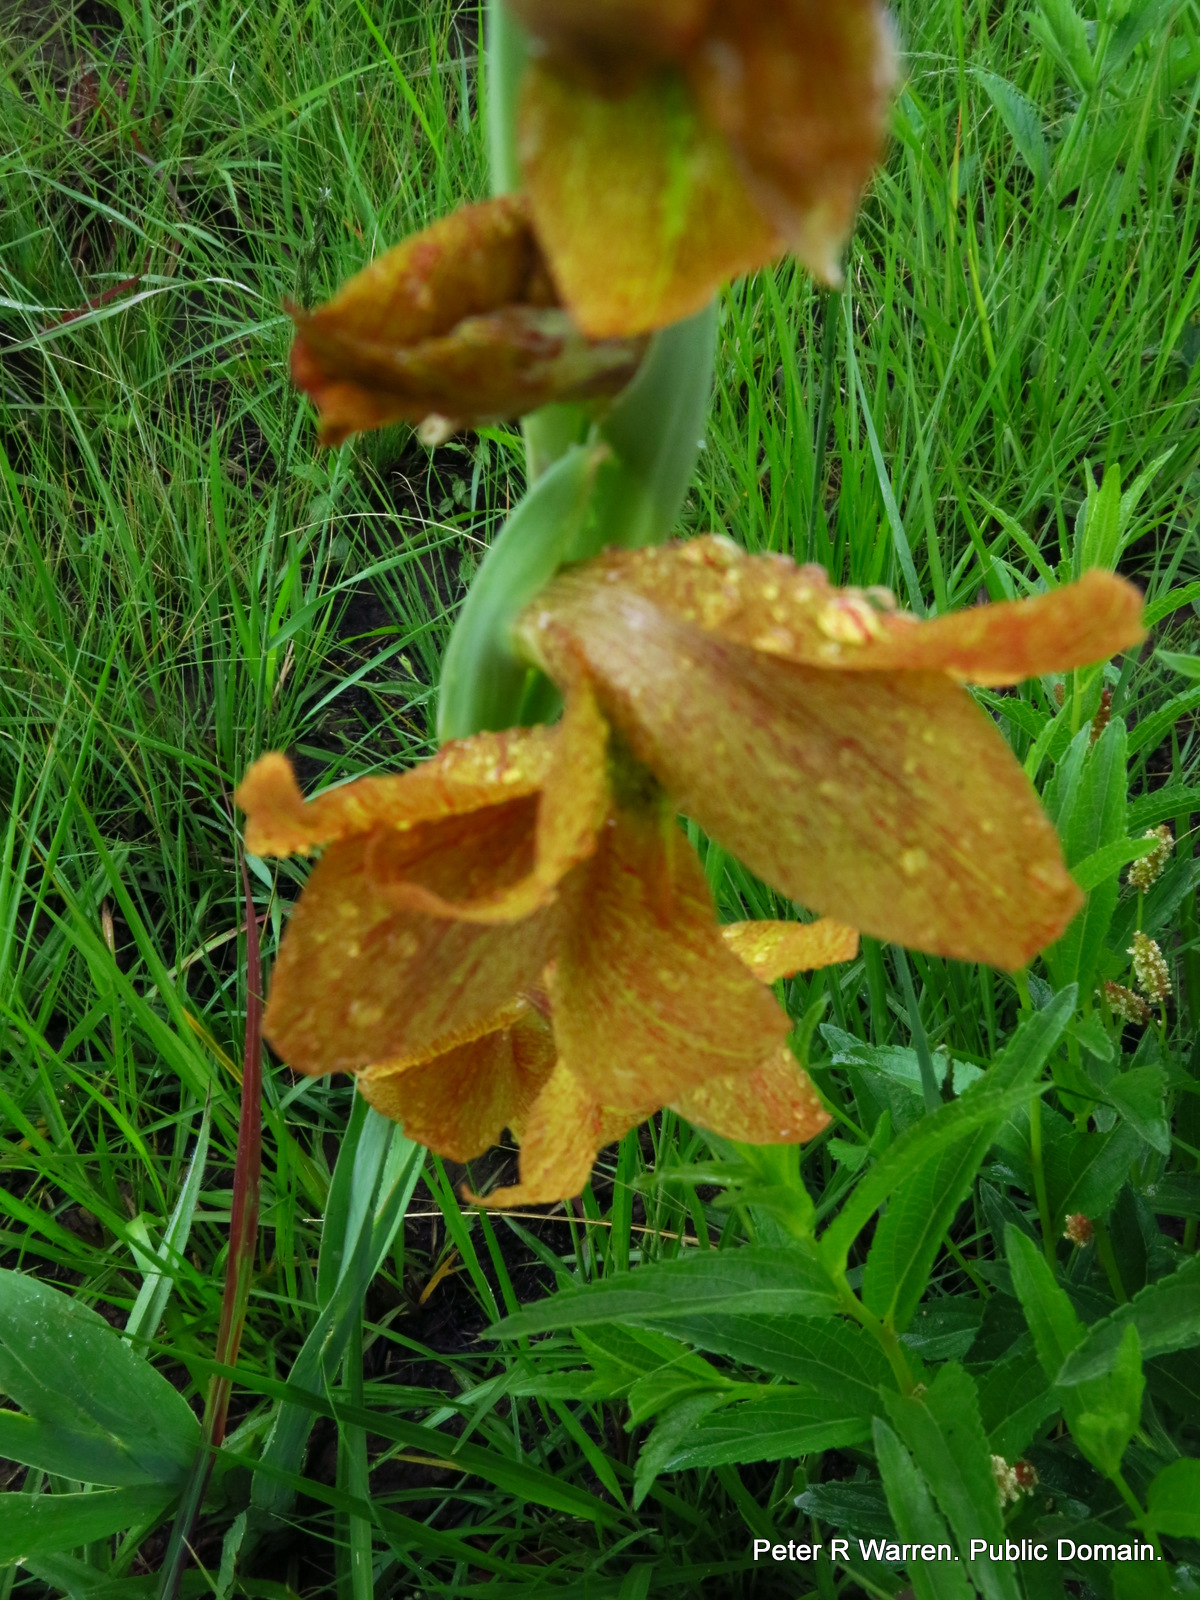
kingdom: Plantae
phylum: Tracheophyta
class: Liliopsida
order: Asparagales
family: Iridaceae
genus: Gladiolus
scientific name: Gladiolus dalenii
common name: Cornflag
